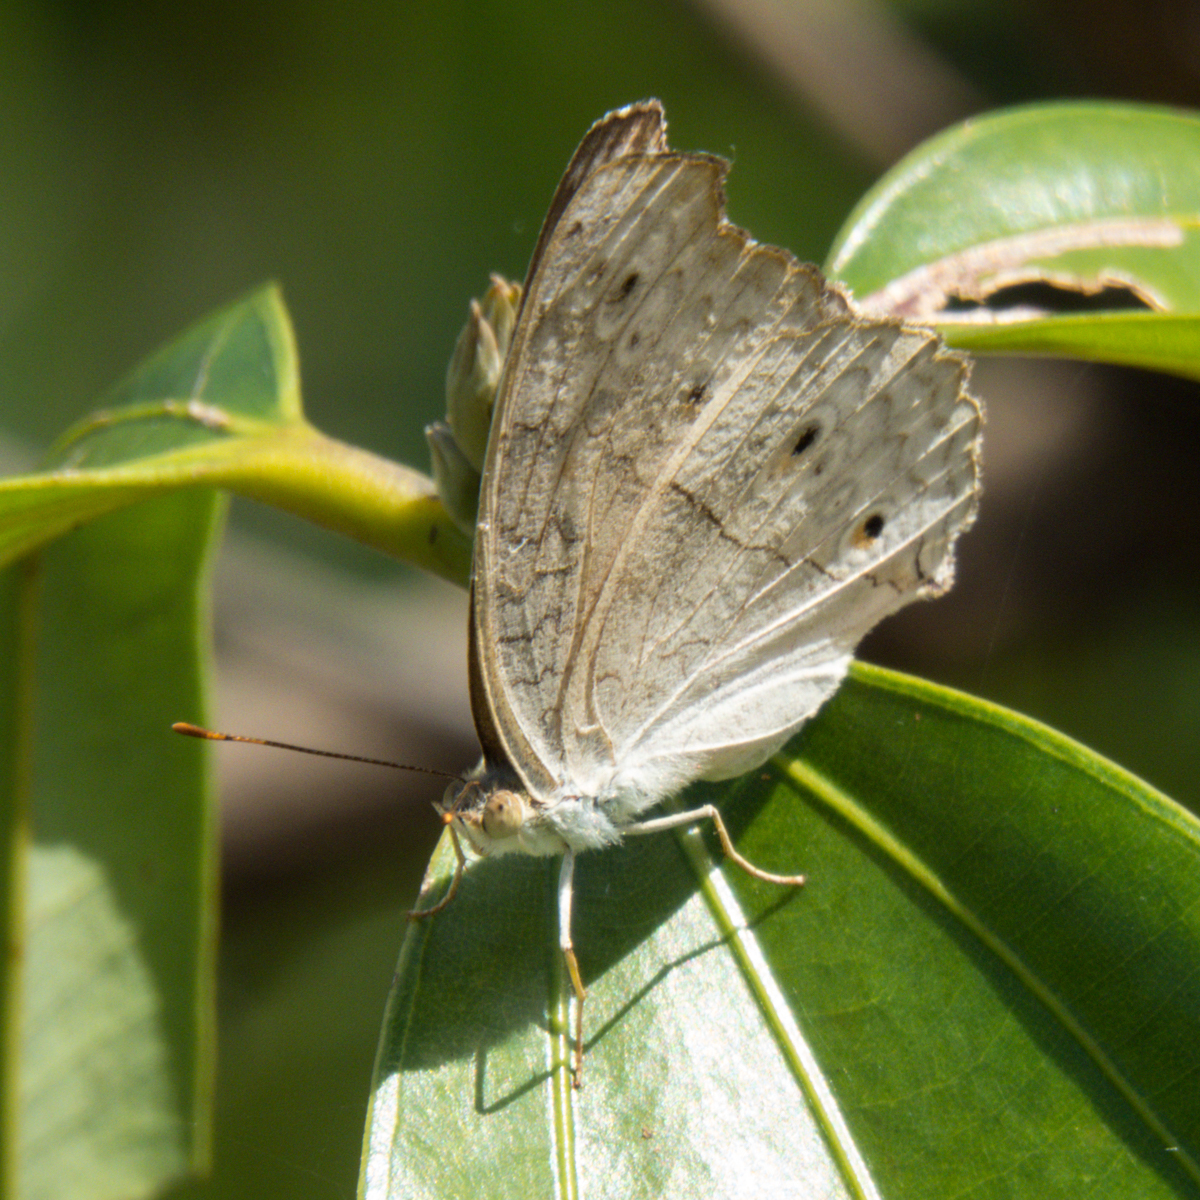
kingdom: Animalia
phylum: Arthropoda
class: Insecta
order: Lepidoptera
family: Nymphalidae
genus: Junonia
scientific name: Junonia atlites
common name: Grey pansy
